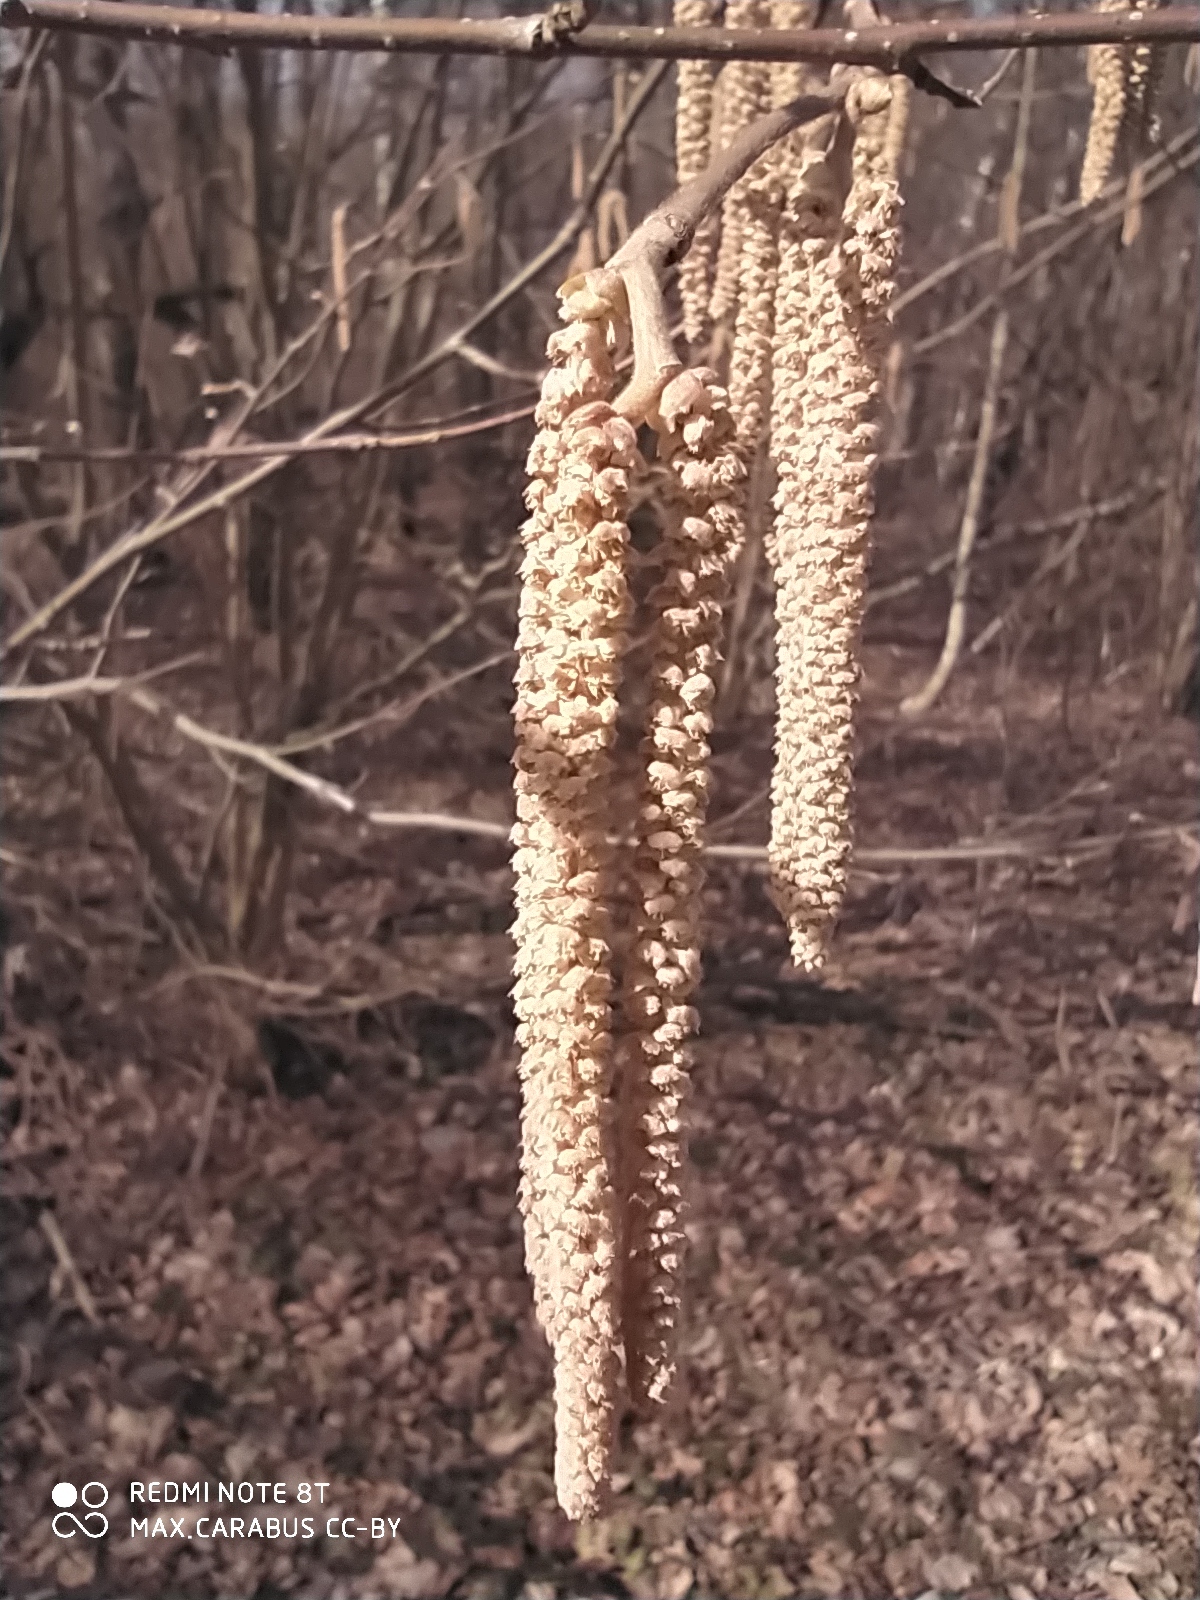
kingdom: Plantae
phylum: Tracheophyta
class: Magnoliopsida
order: Fagales
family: Betulaceae
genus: Corylus
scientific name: Corylus avellana
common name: European hazel
